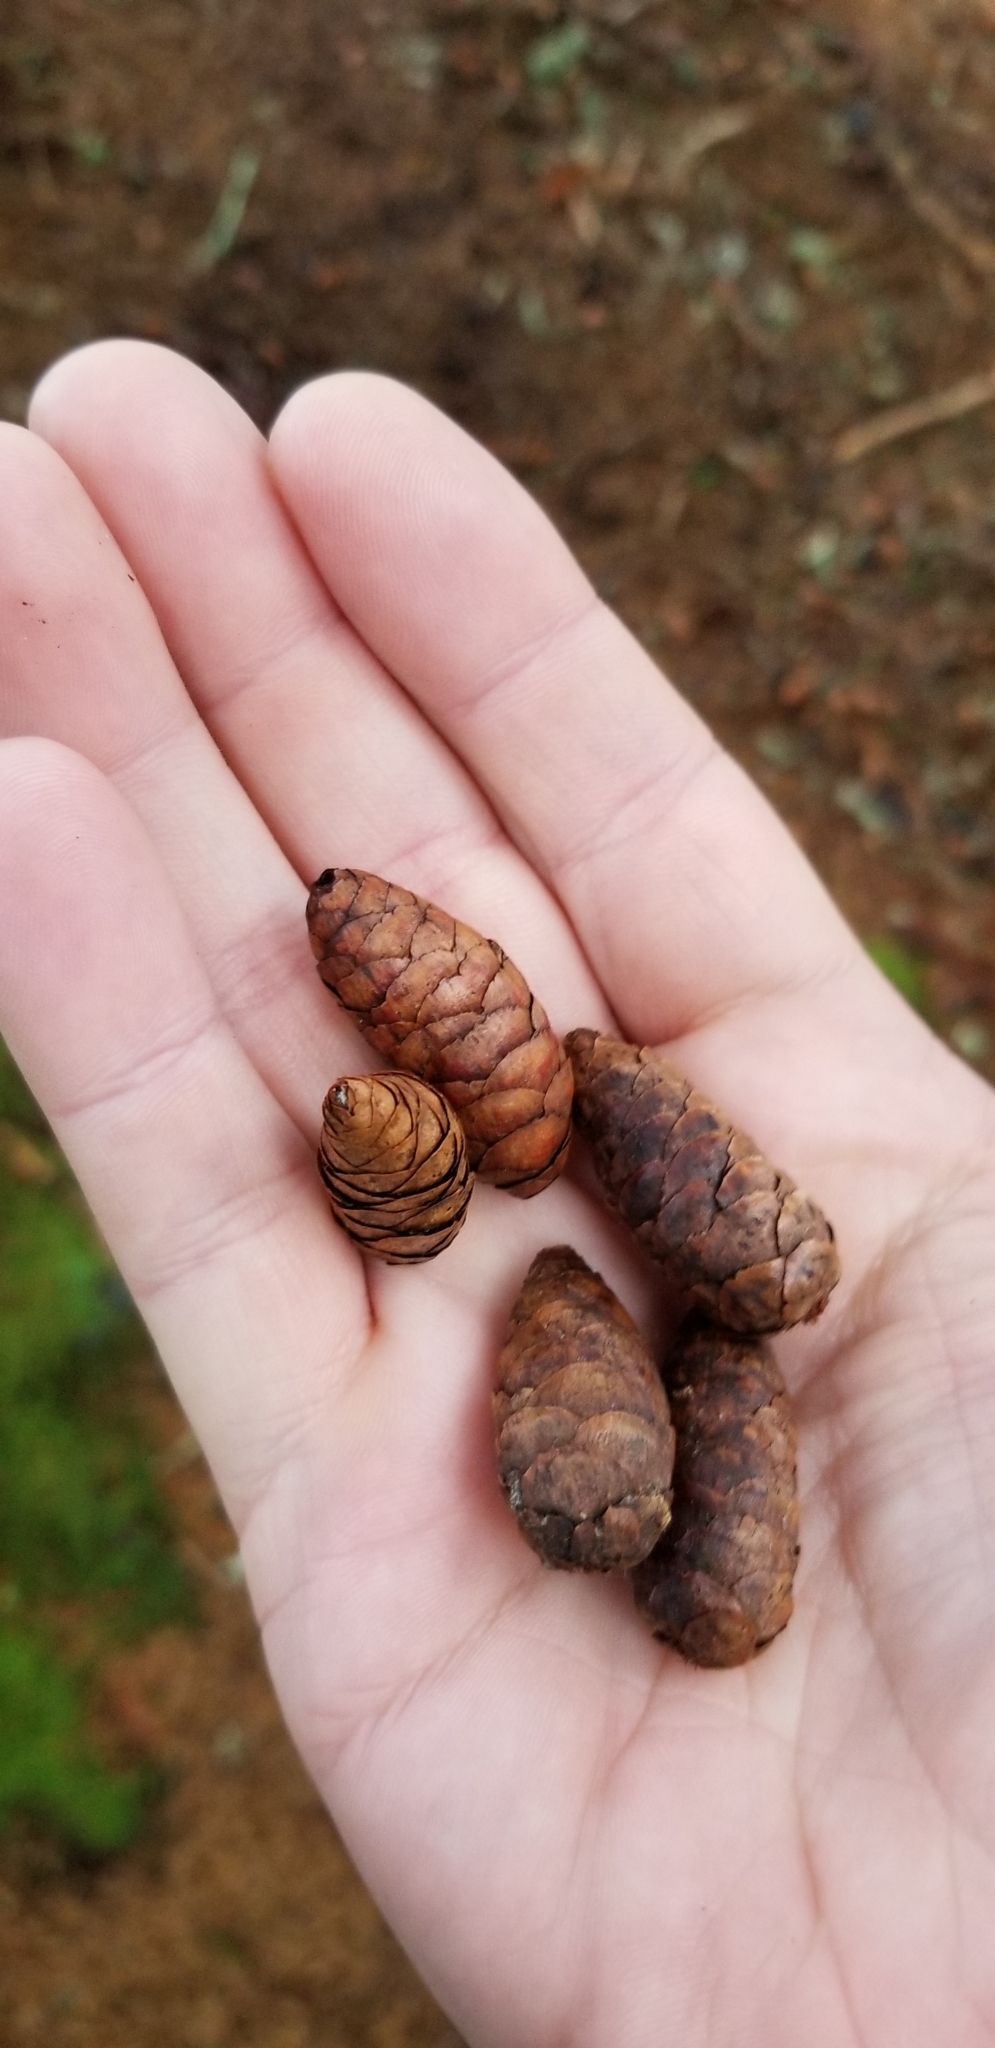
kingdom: Plantae
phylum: Tracheophyta
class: Pinopsida
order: Pinales
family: Pinaceae
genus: Picea
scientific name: Picea rubens
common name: Red spruce
